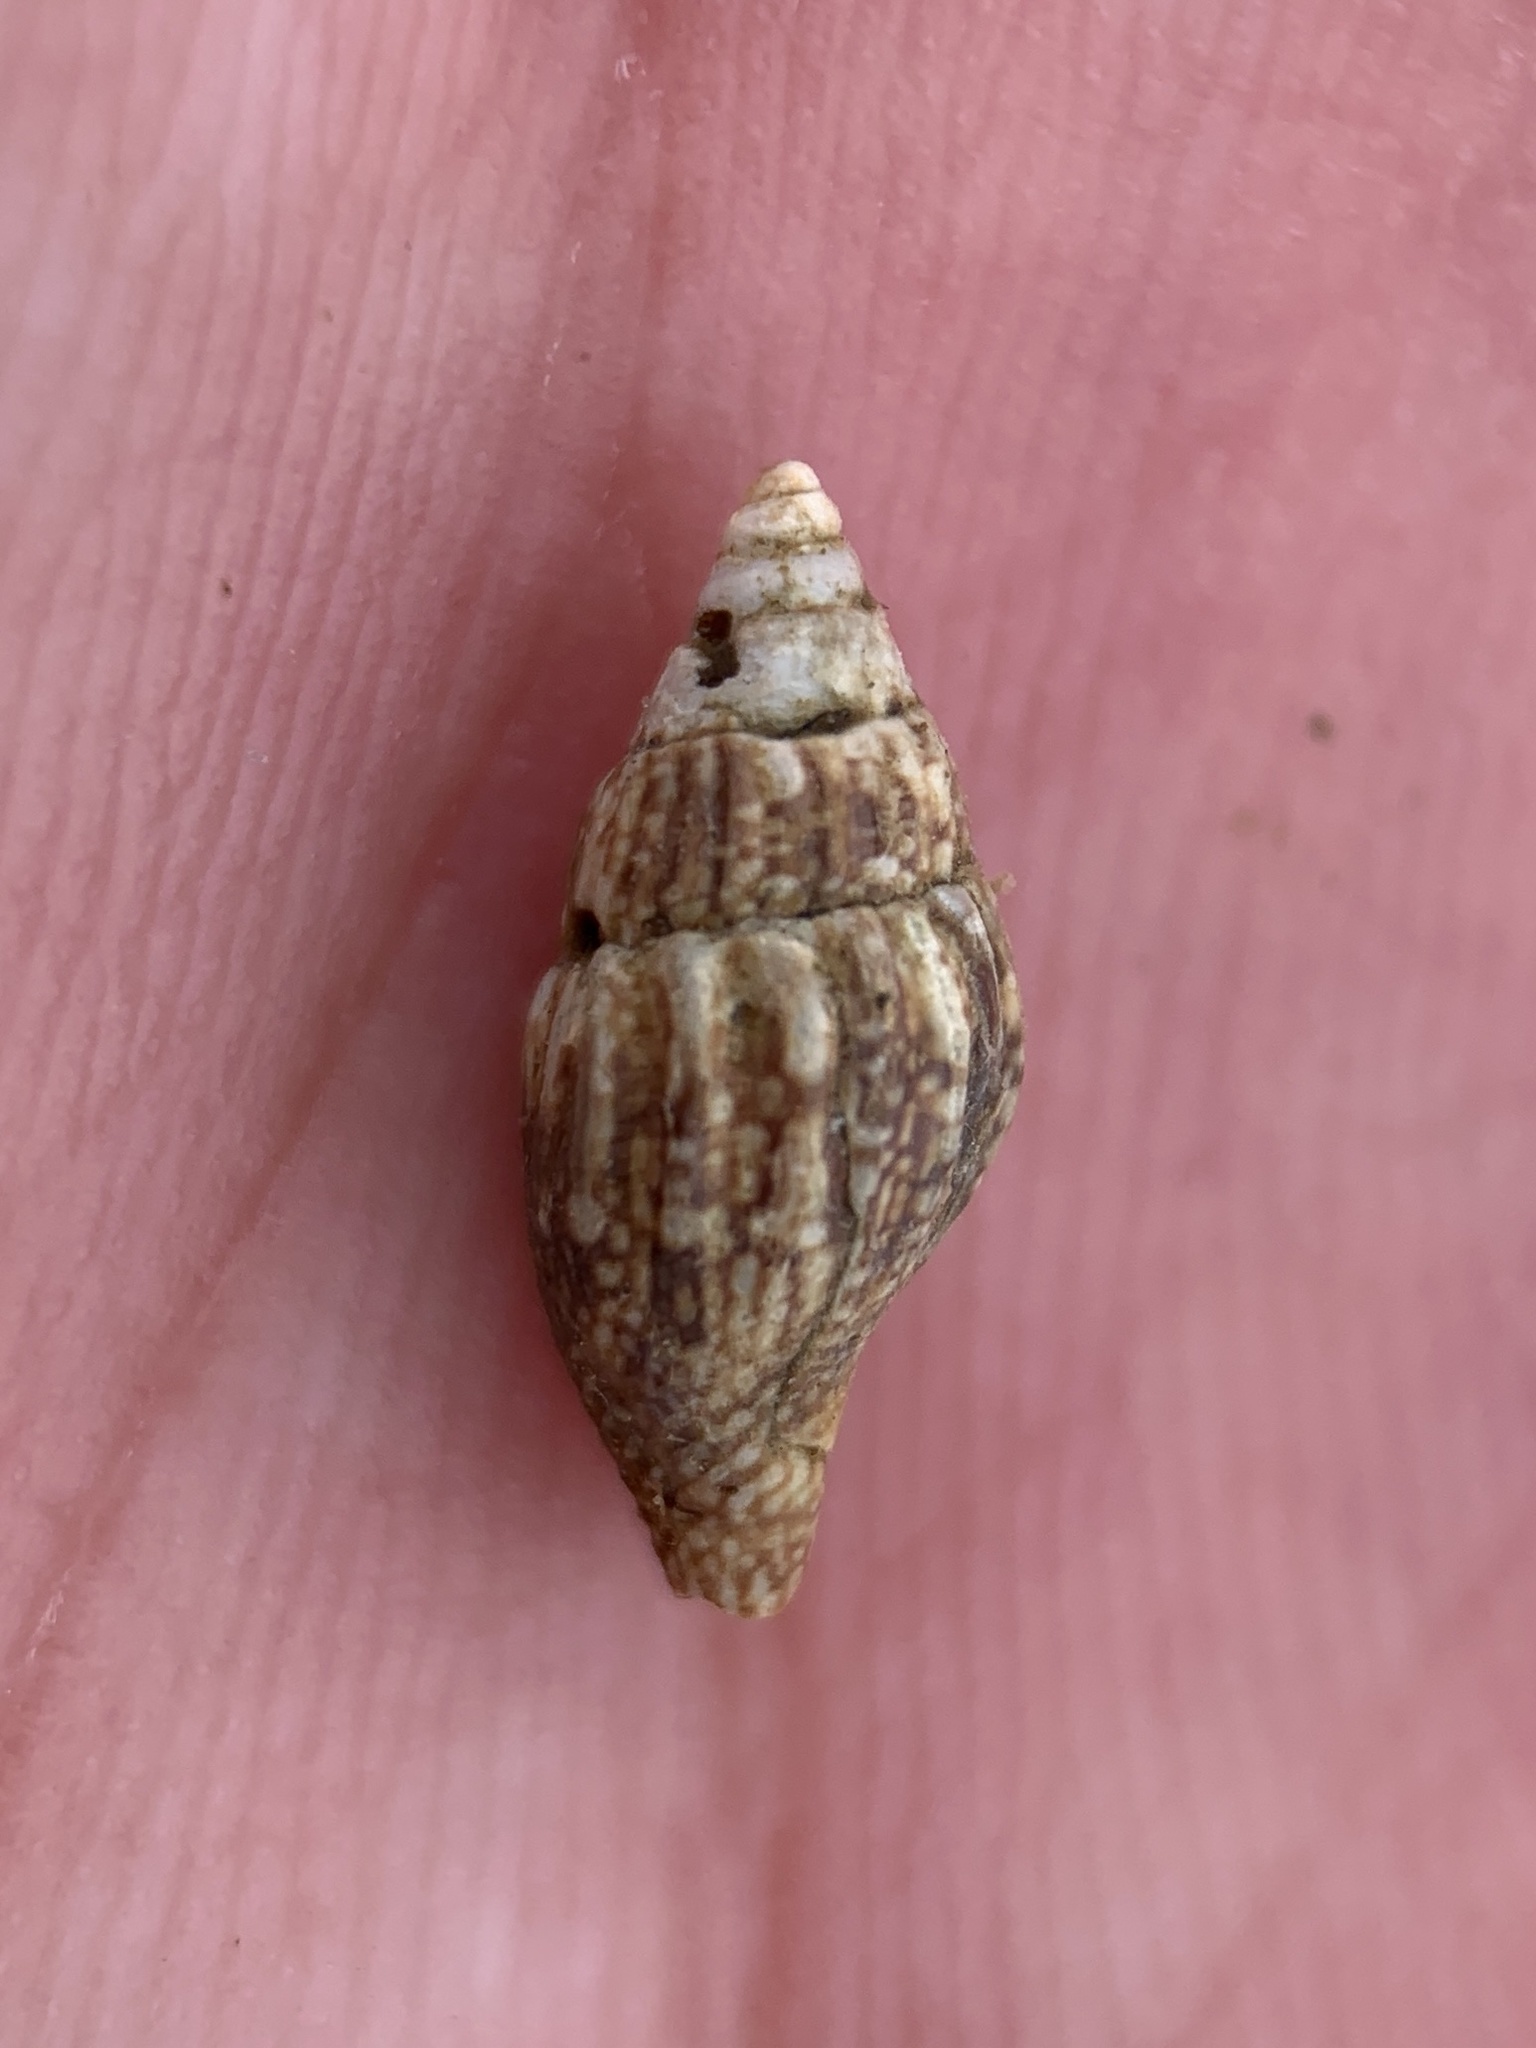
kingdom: Animalia
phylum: Mollusca
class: Gastropoda
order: Neogastropoda
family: Columbellidae
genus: Costoanachis
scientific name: Costoanachis avara
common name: Greedy dovesnail
